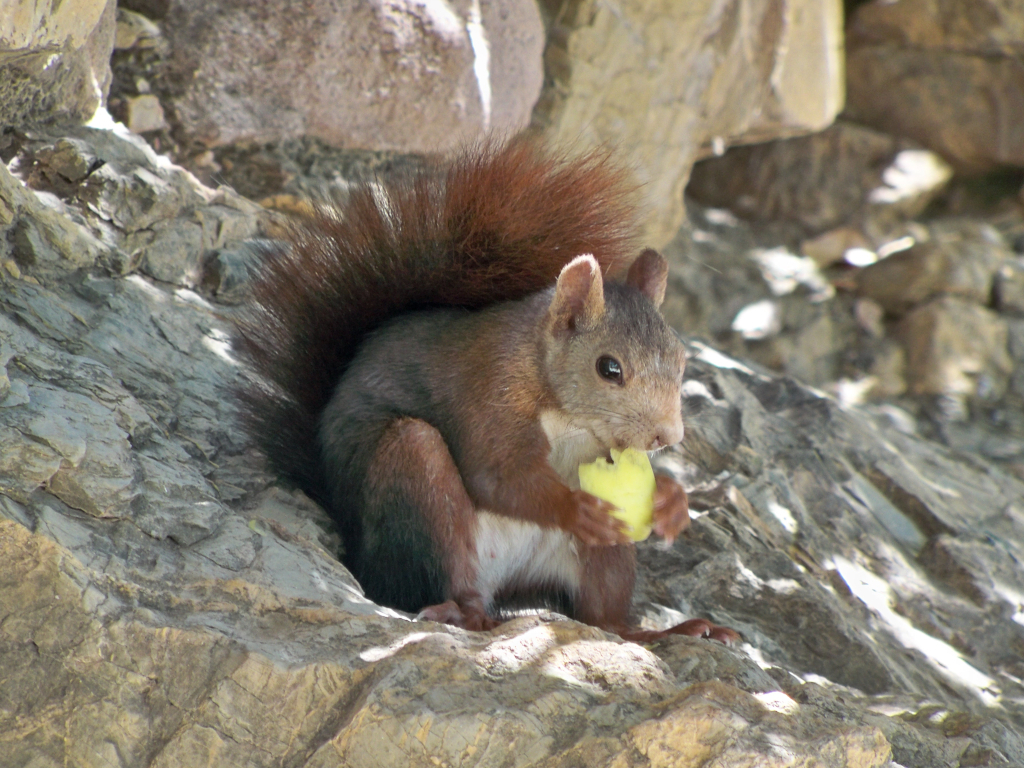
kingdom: Animalia
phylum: Chordata
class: Mammalia
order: Rodentia
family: Sciuridae
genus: Sciurus
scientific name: Sciurus vulgaris
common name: Eurasian red squirrel
